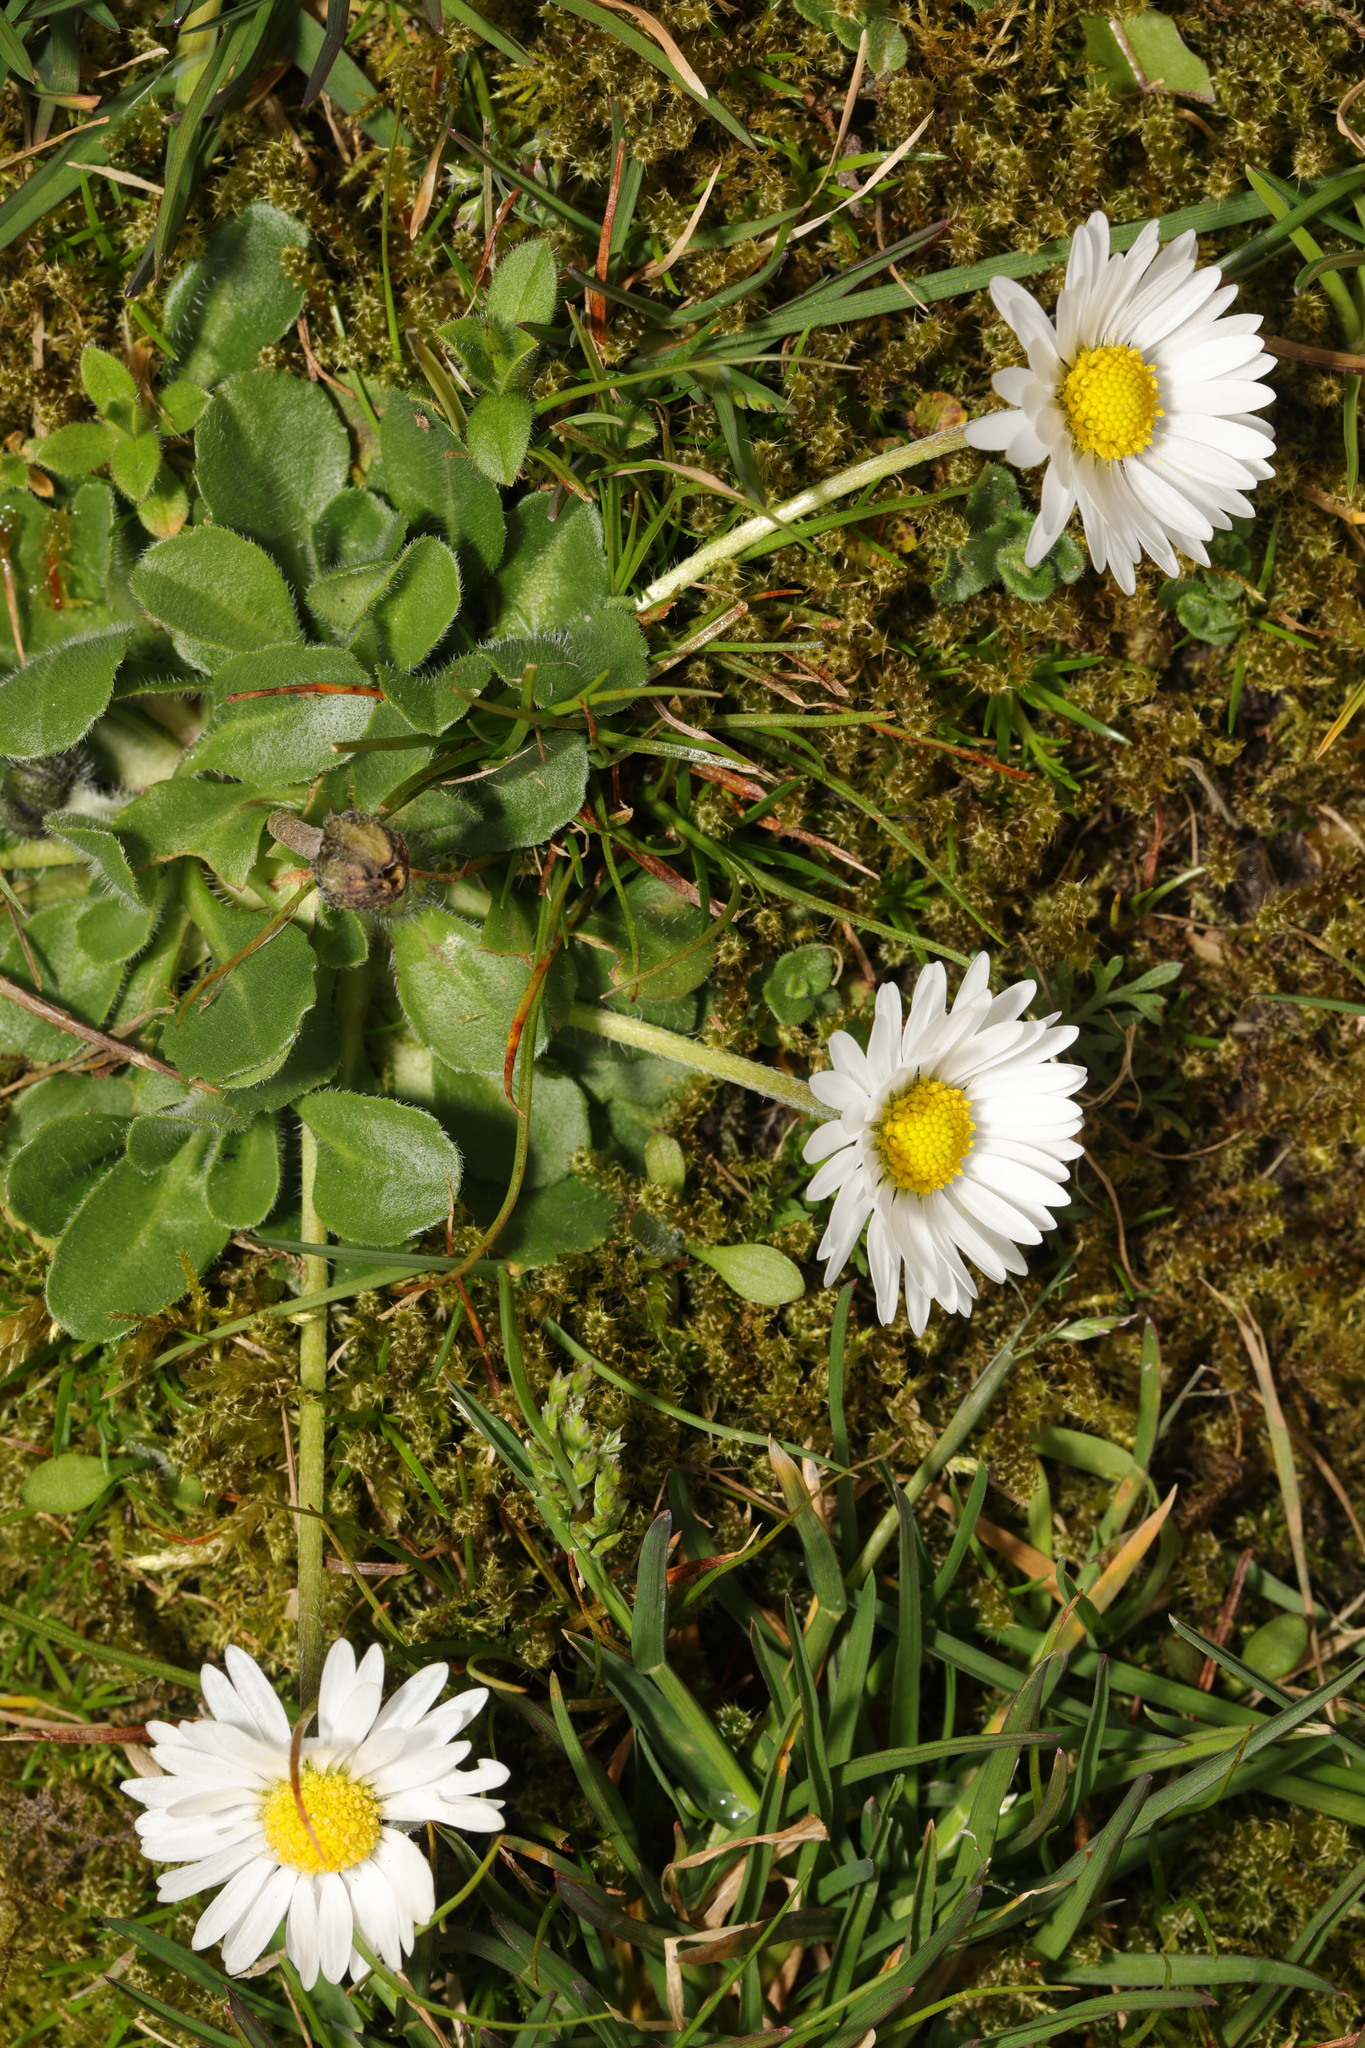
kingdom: Plantae
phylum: Tracheophyta
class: Magnoliopsida
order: Asterales
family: Asteraceae
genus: Bellis
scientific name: Bellis perennis
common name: Lawndaisy
